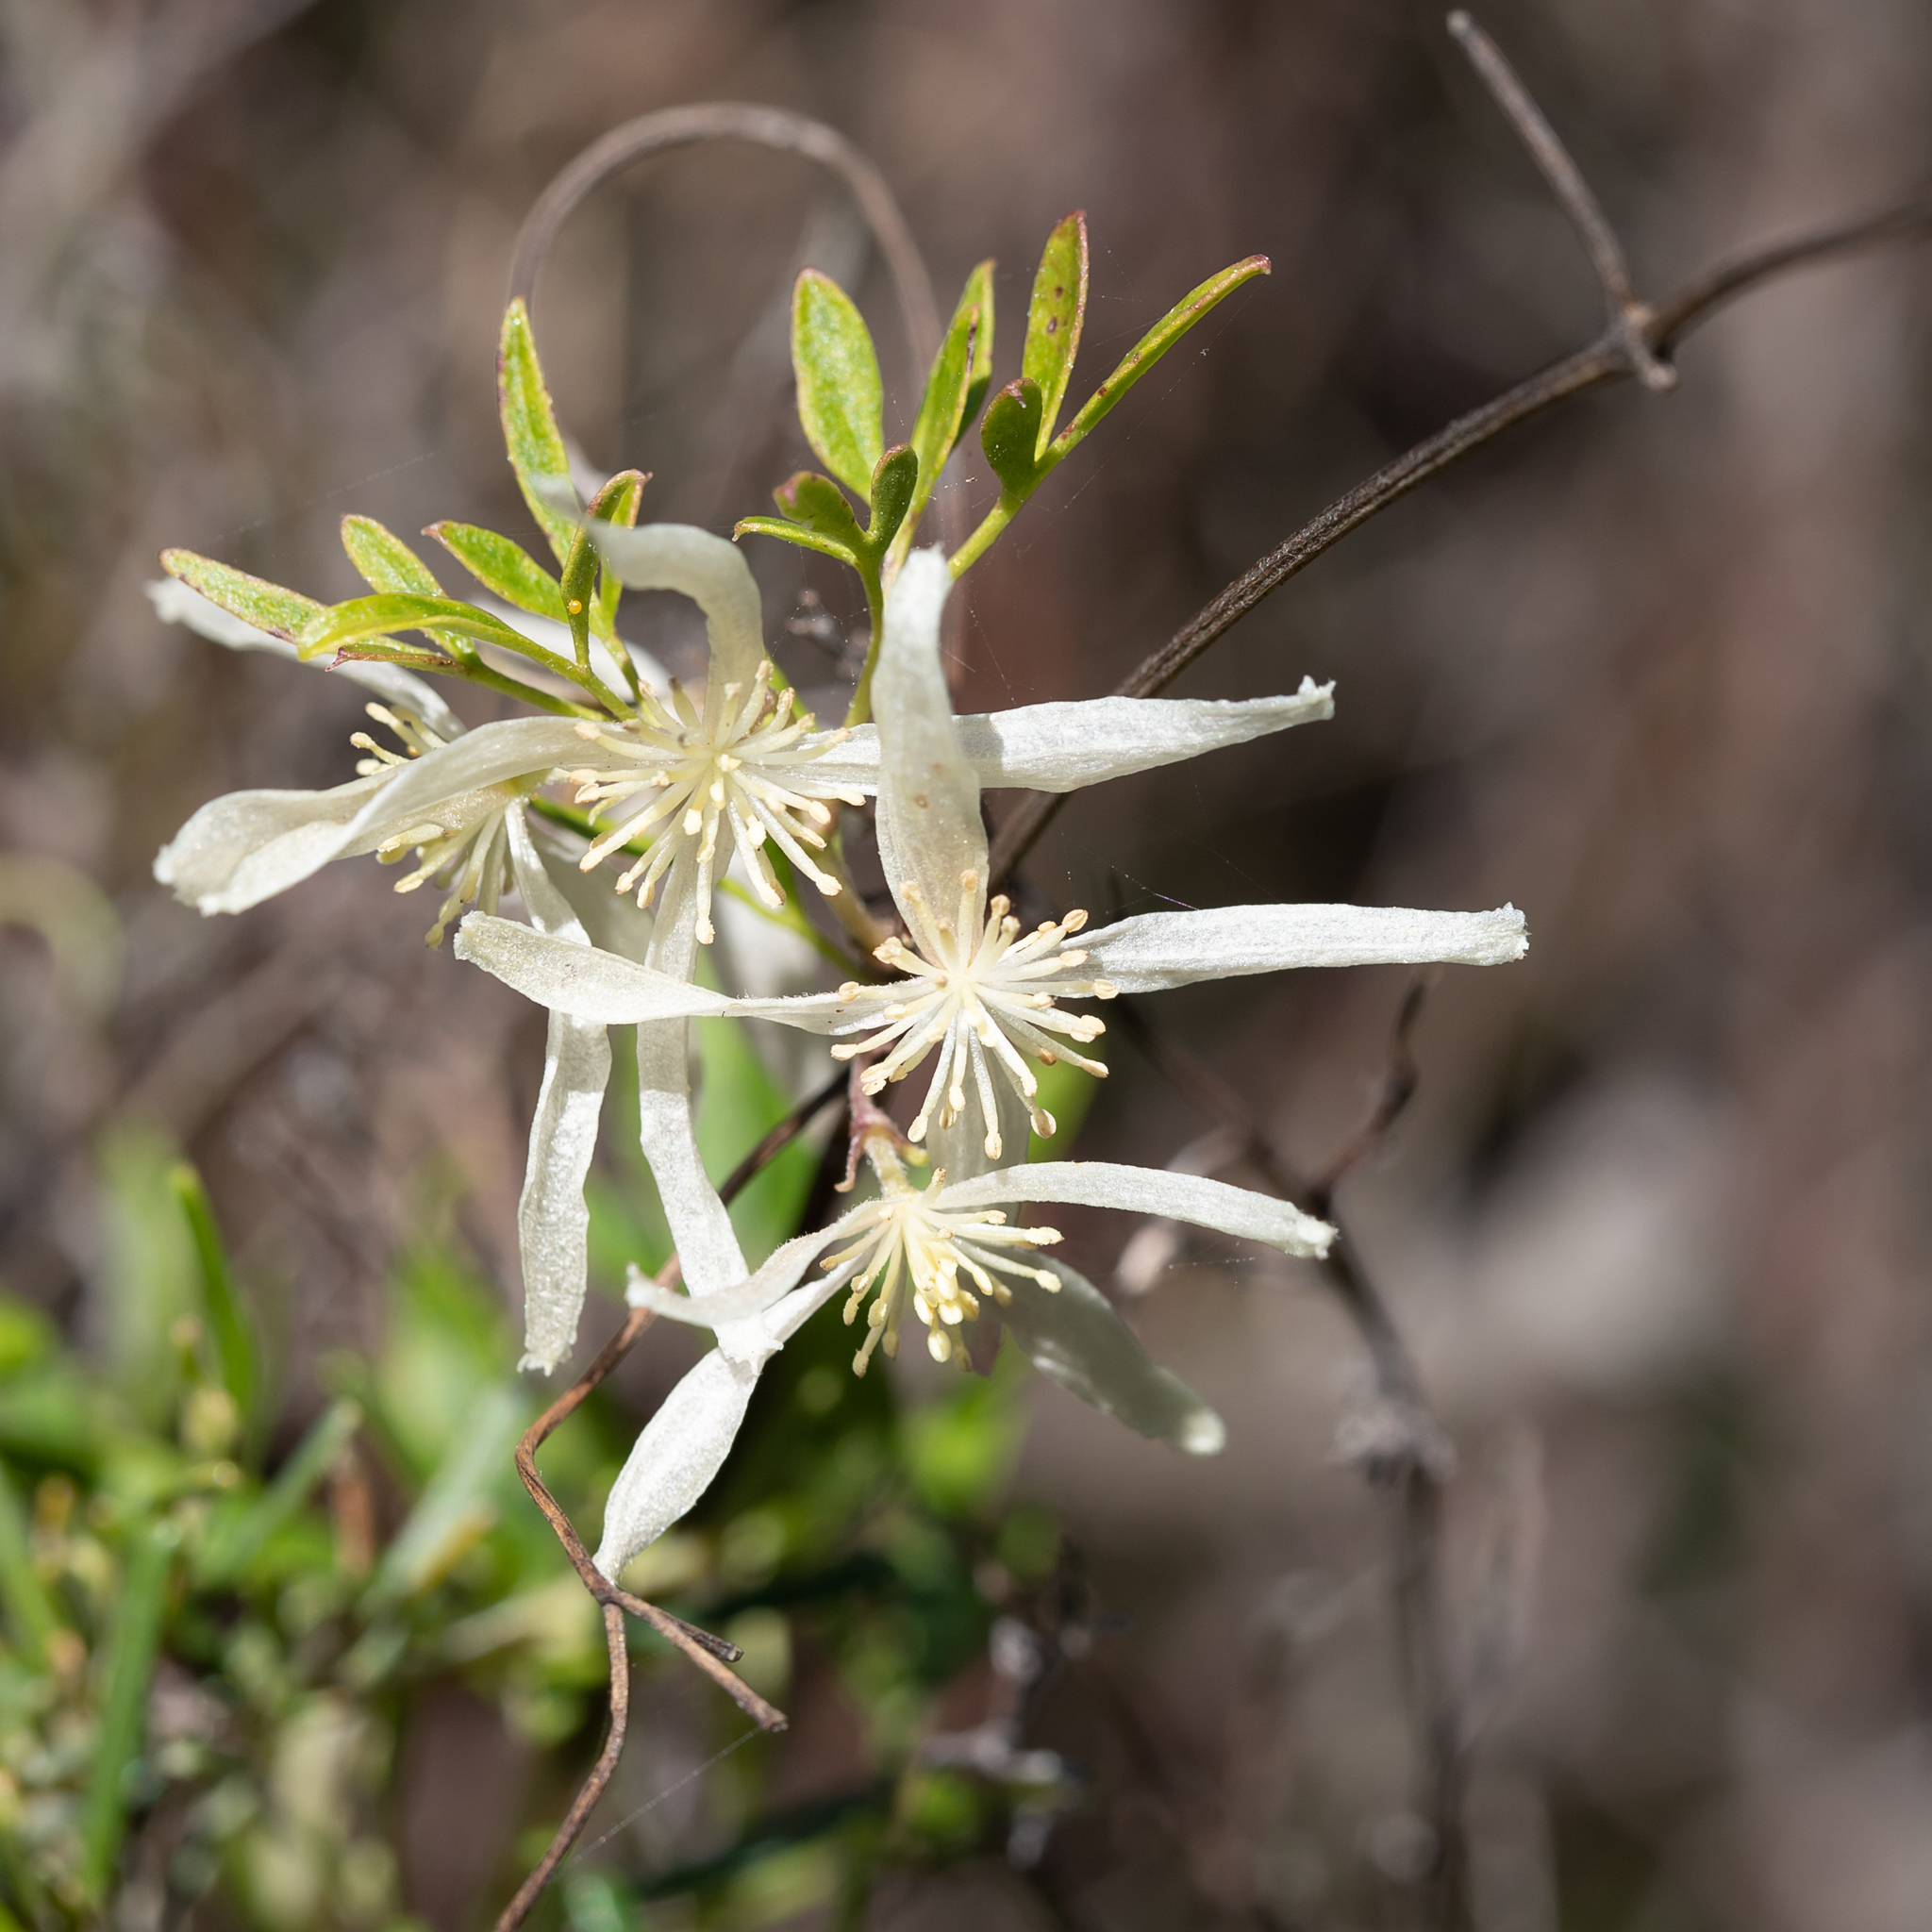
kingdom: Plantae
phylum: Tracheophyta
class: Magnoliopsida
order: Ranunculales
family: Ranunculaceae
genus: Clematis
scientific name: Clematis microphylla
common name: Headachevine
